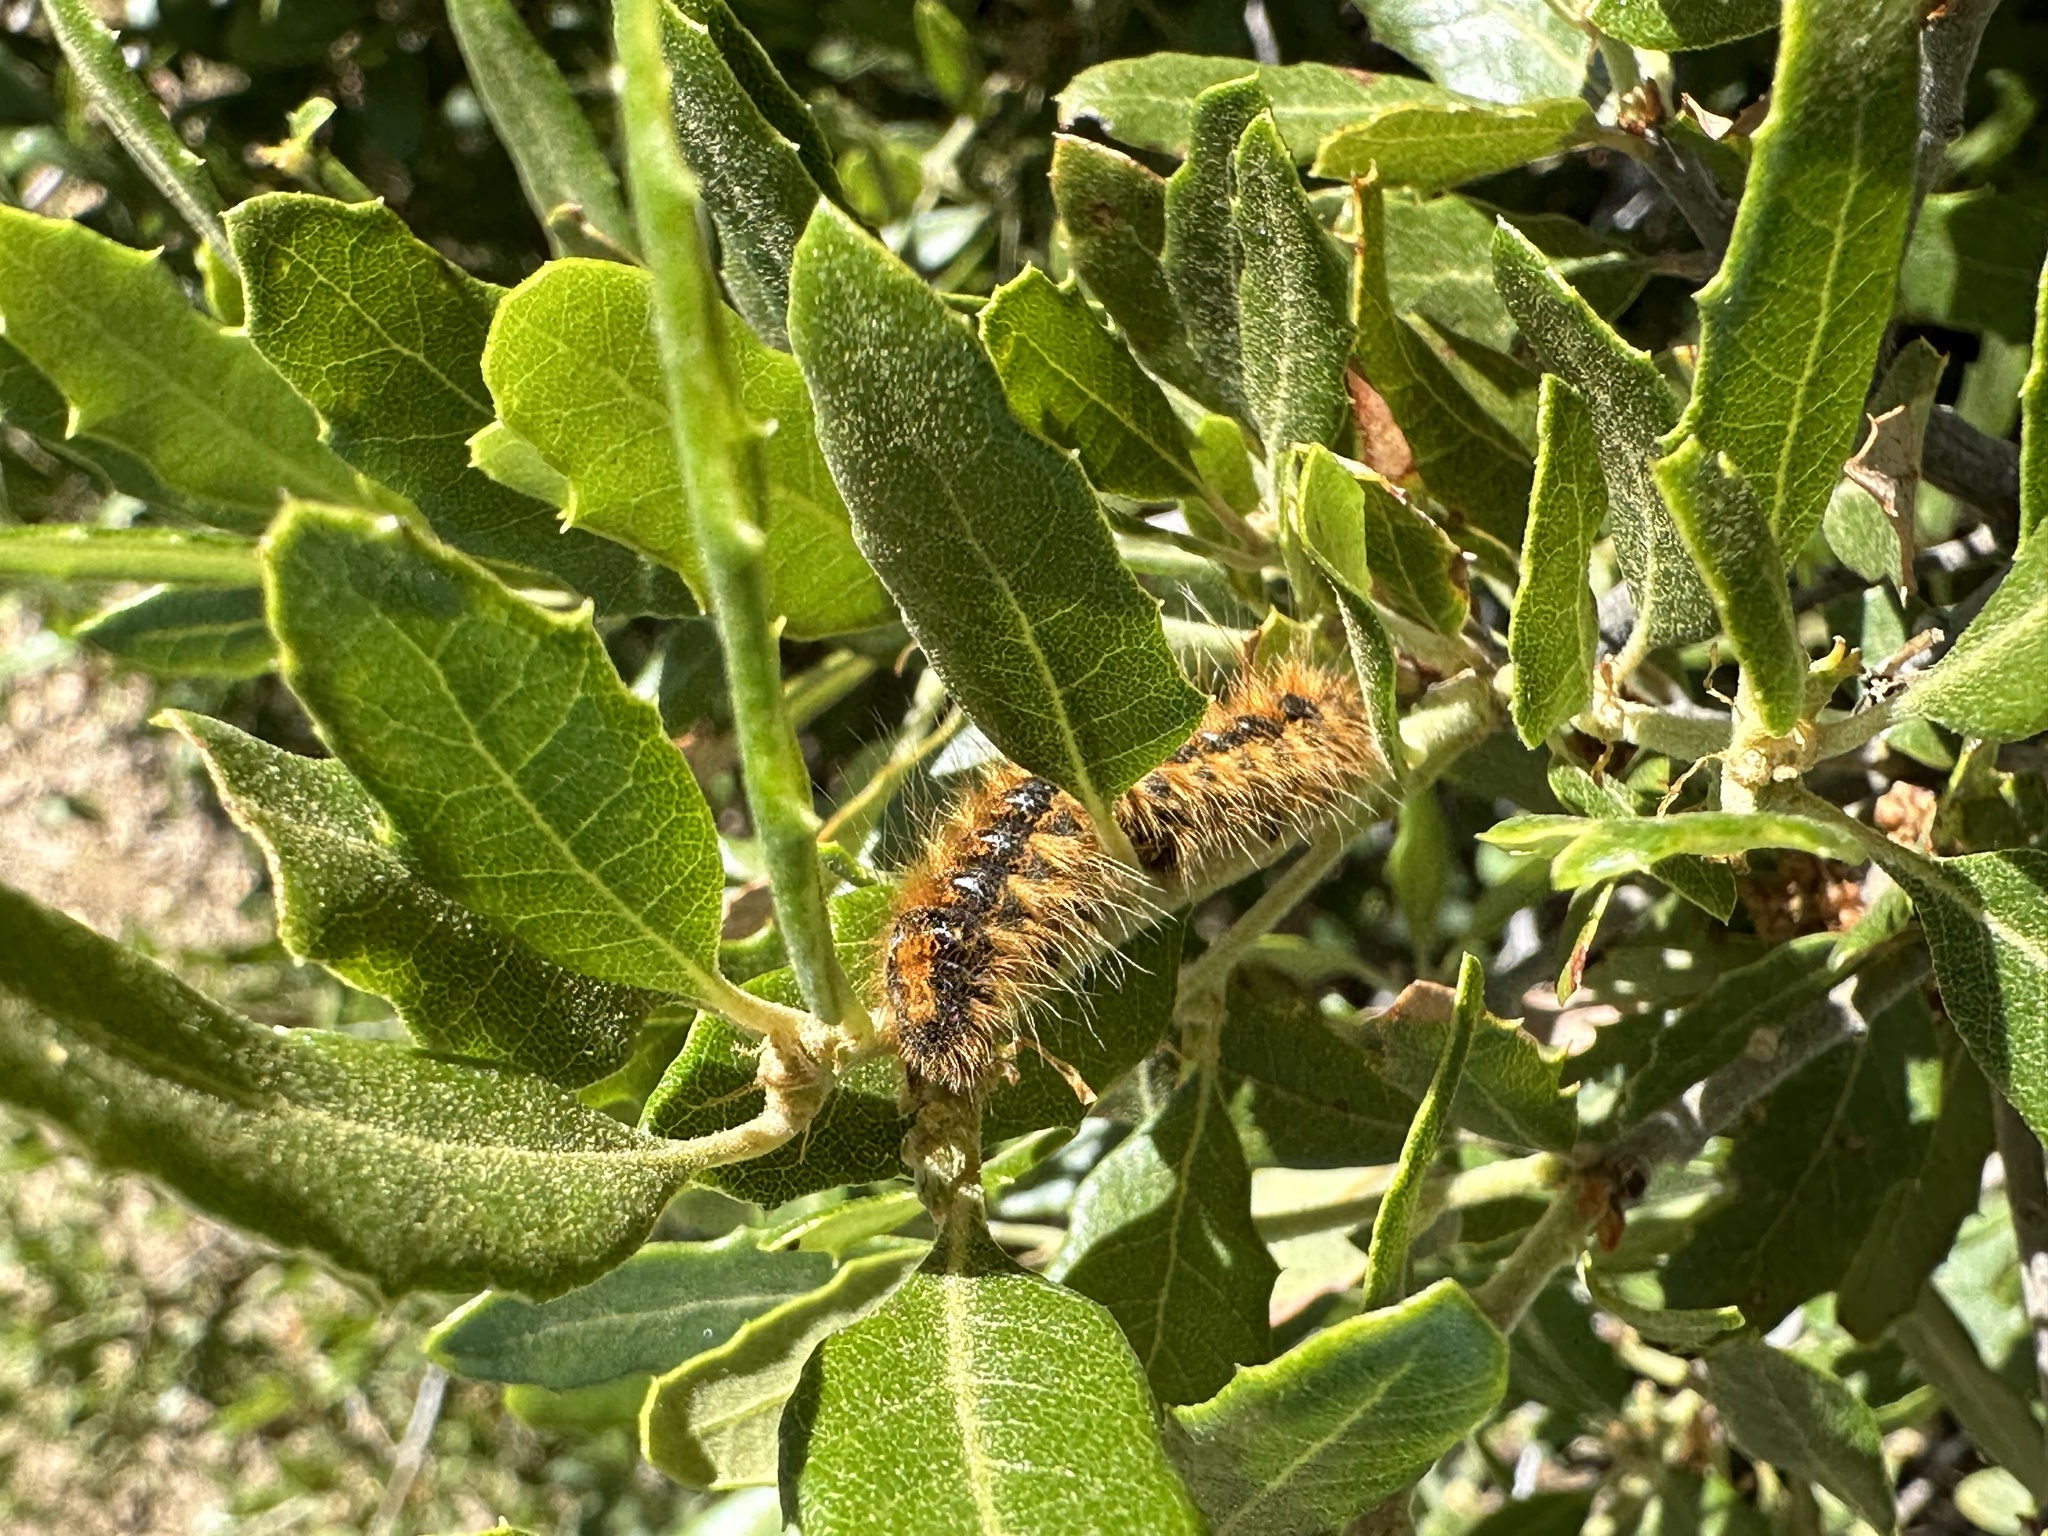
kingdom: Animalia
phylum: Arthropoda
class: Insecta
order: Lepidoptera
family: Lasiocampidae
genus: Malacosoma
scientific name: Malacosoma constricta
